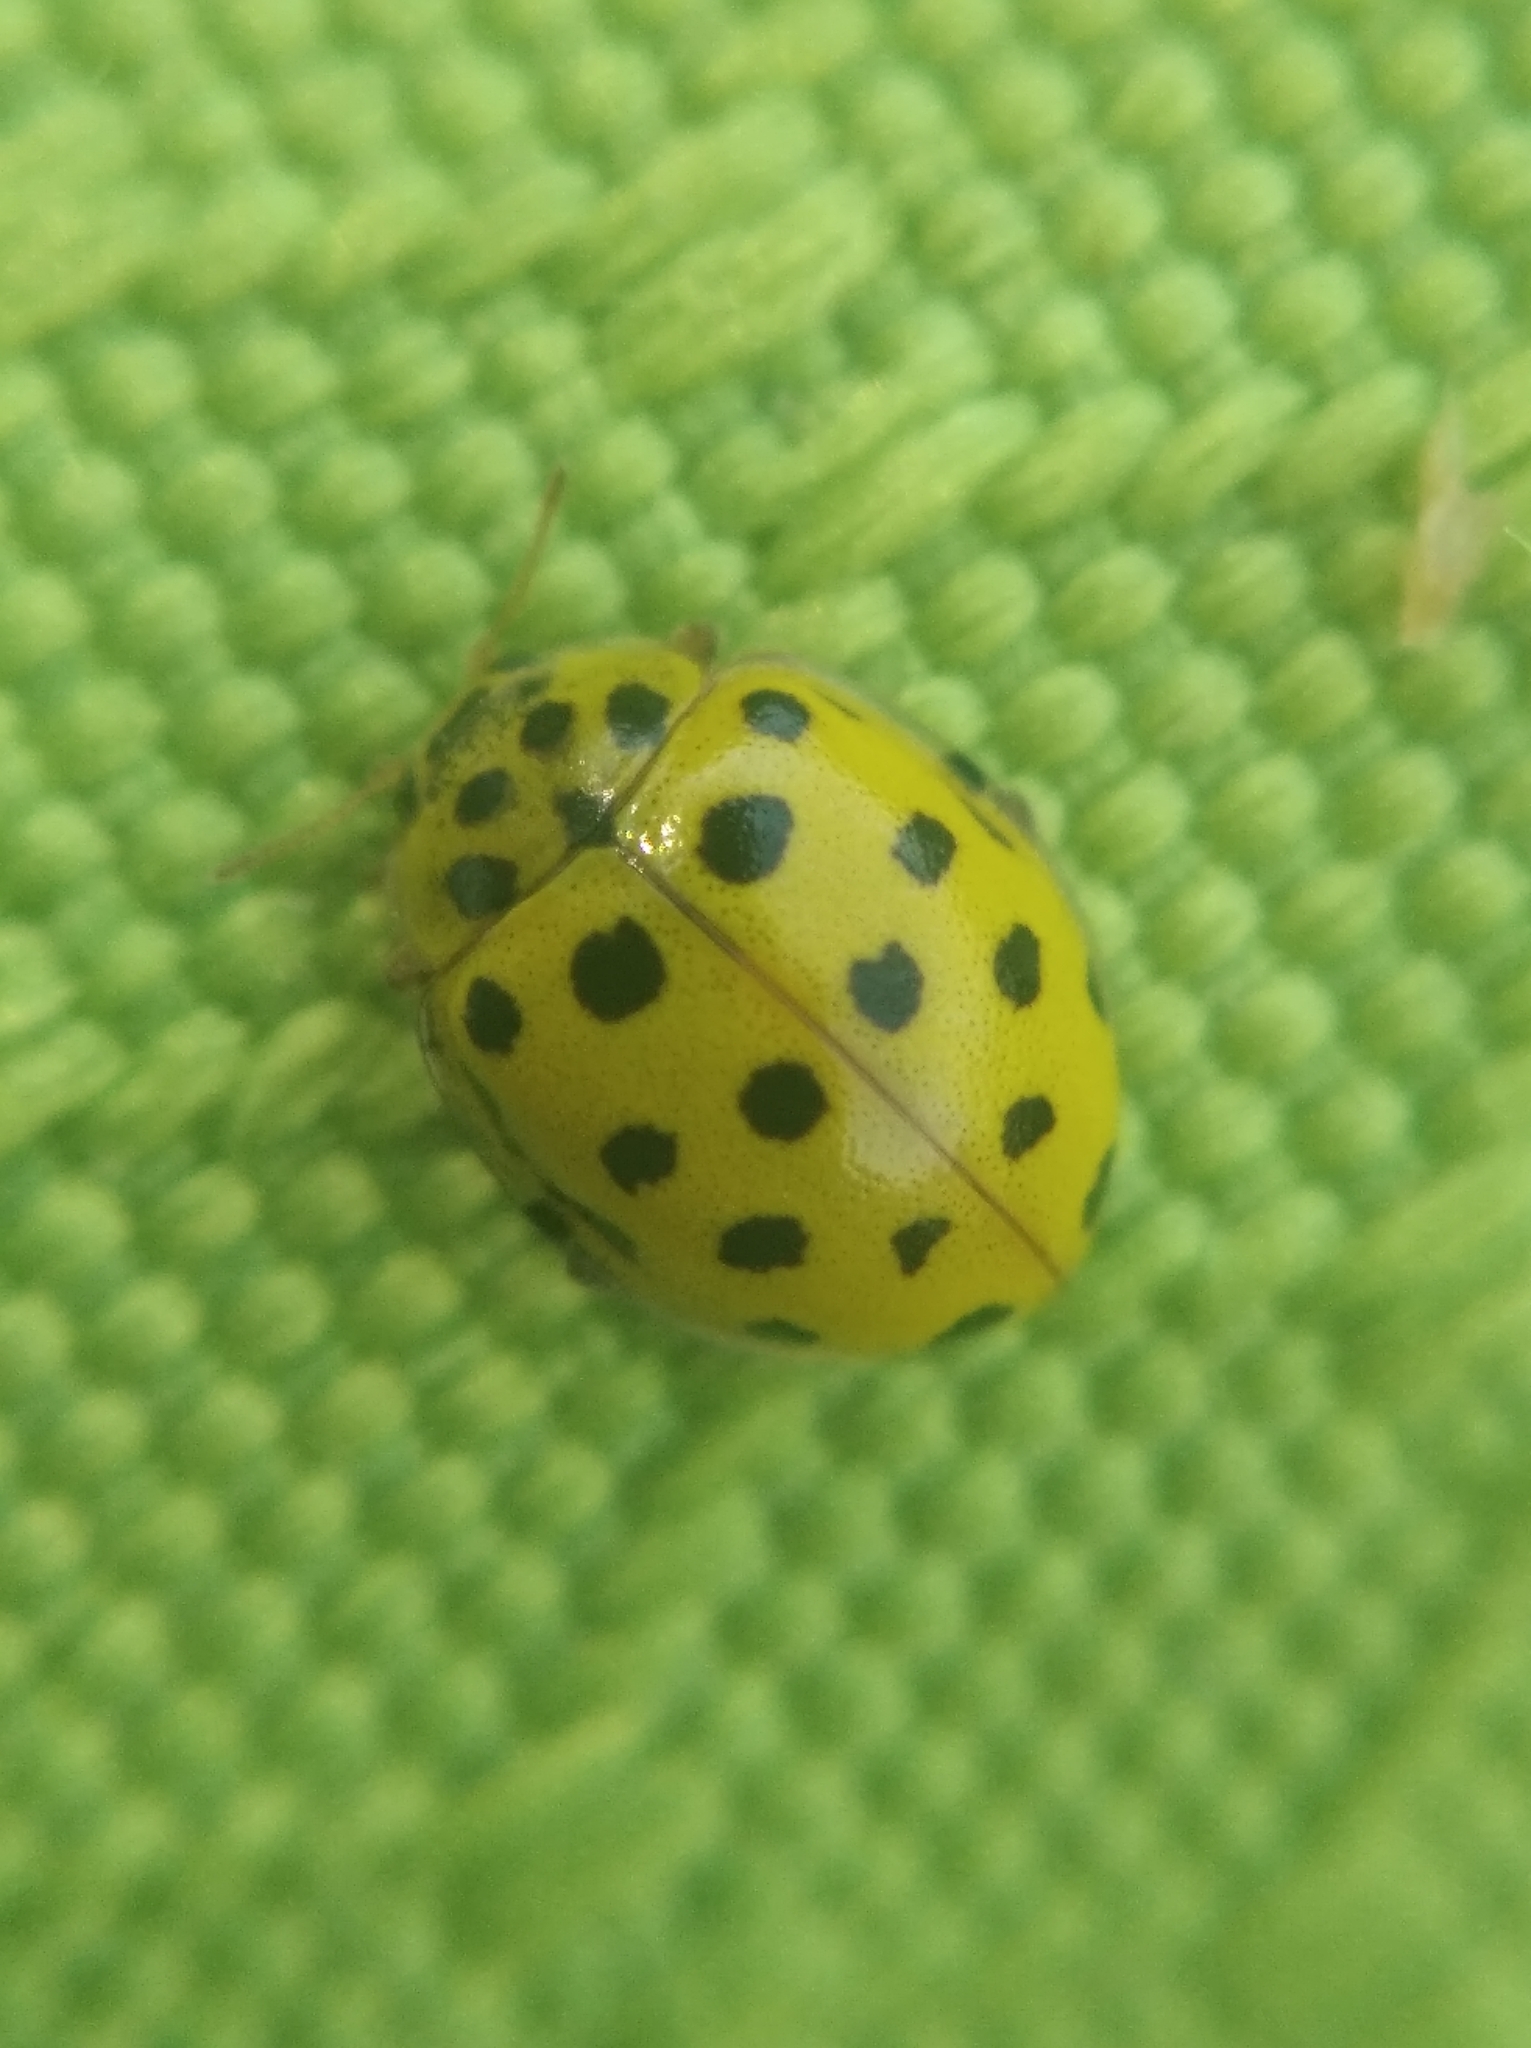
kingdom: Animalia
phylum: Arthropoda
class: Insecta
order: Coleoptera
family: Coccinellidae
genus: Psyllobora
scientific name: Psyllobora vigintiduopunctata
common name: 22-spot ladybird
